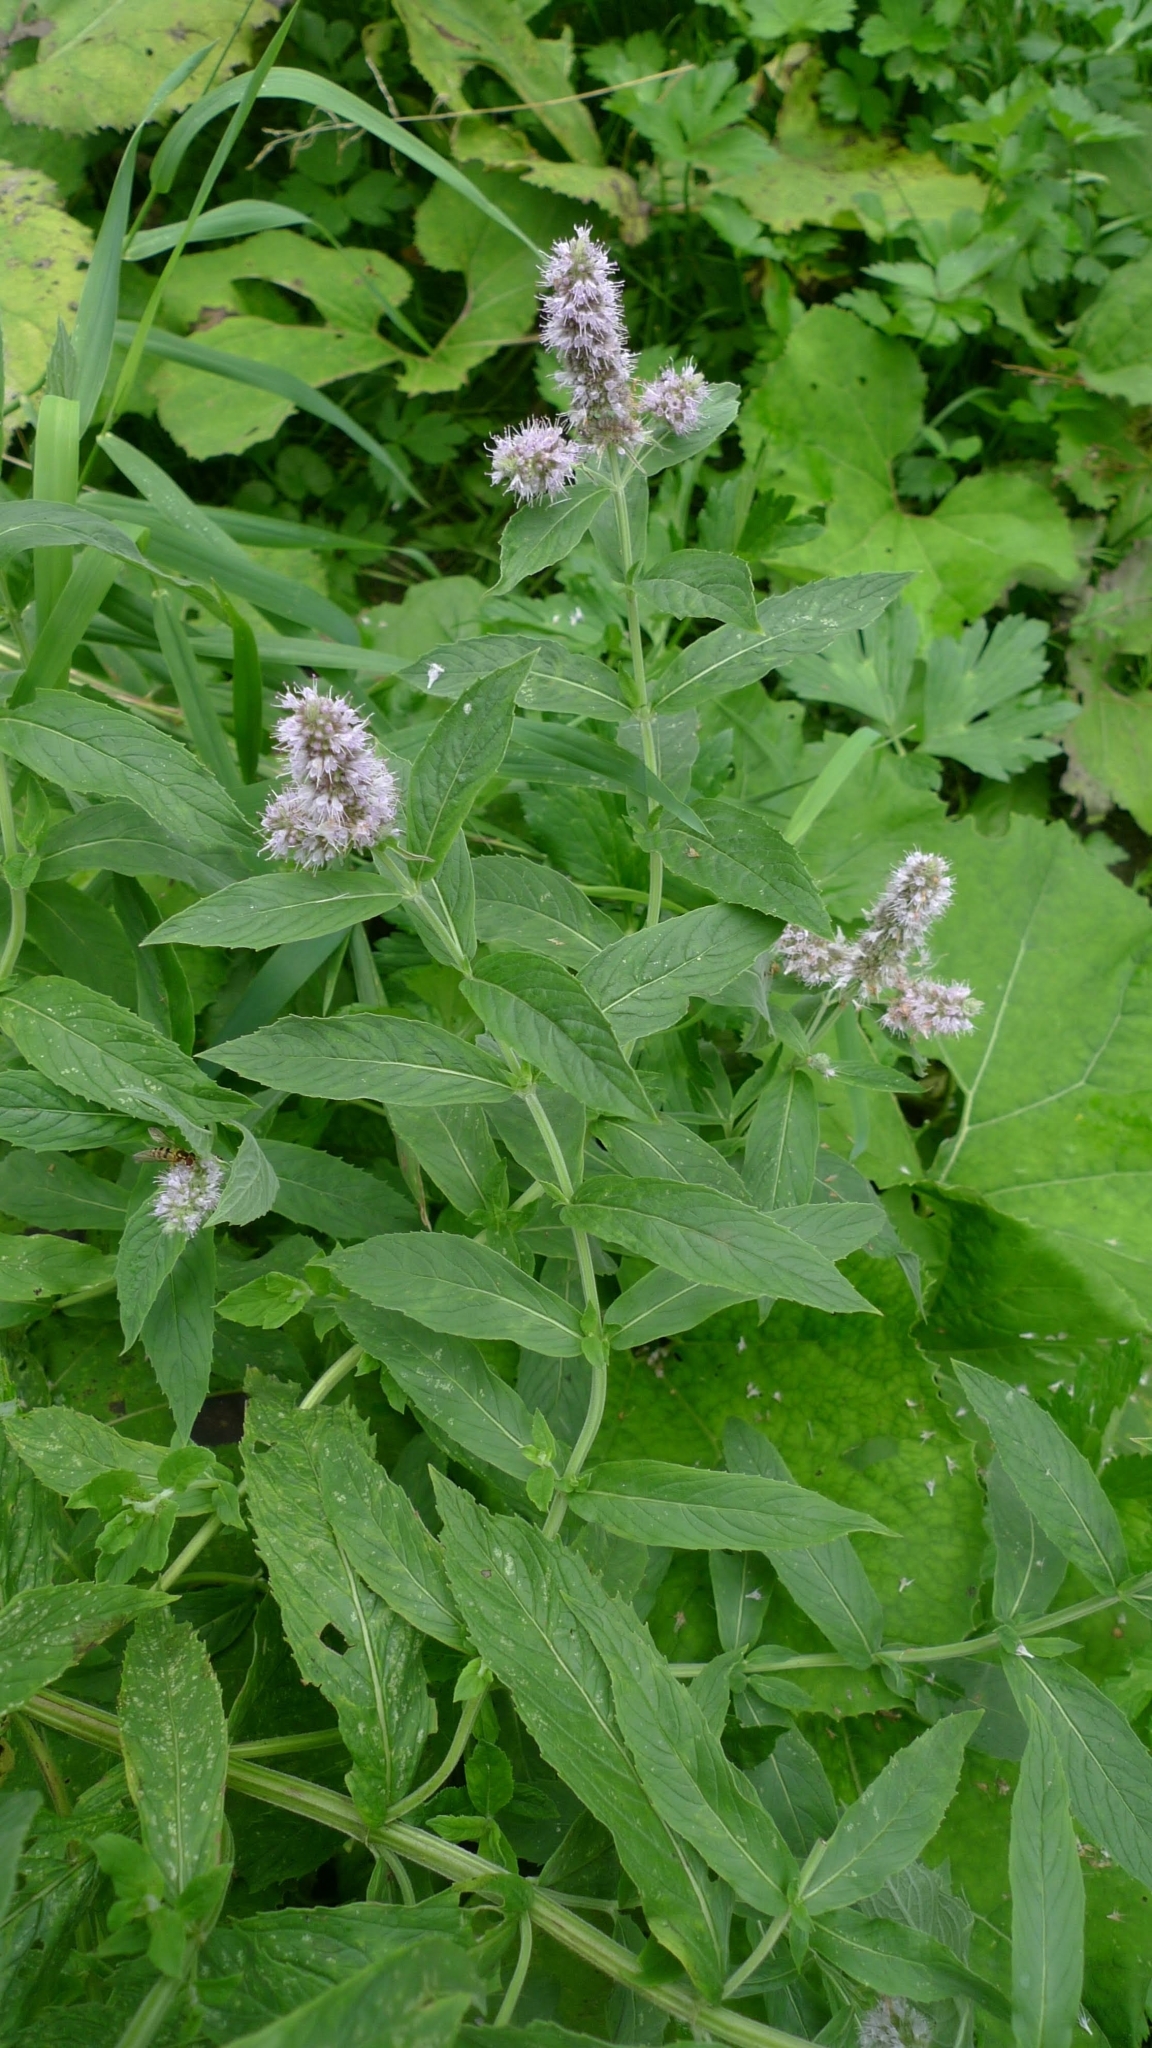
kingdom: Plantae
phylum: Tracheophyta
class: Magnoliopsida
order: Lamiales
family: Lamiaceae
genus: Mentha
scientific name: Mentha longifolia
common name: Horse mint
